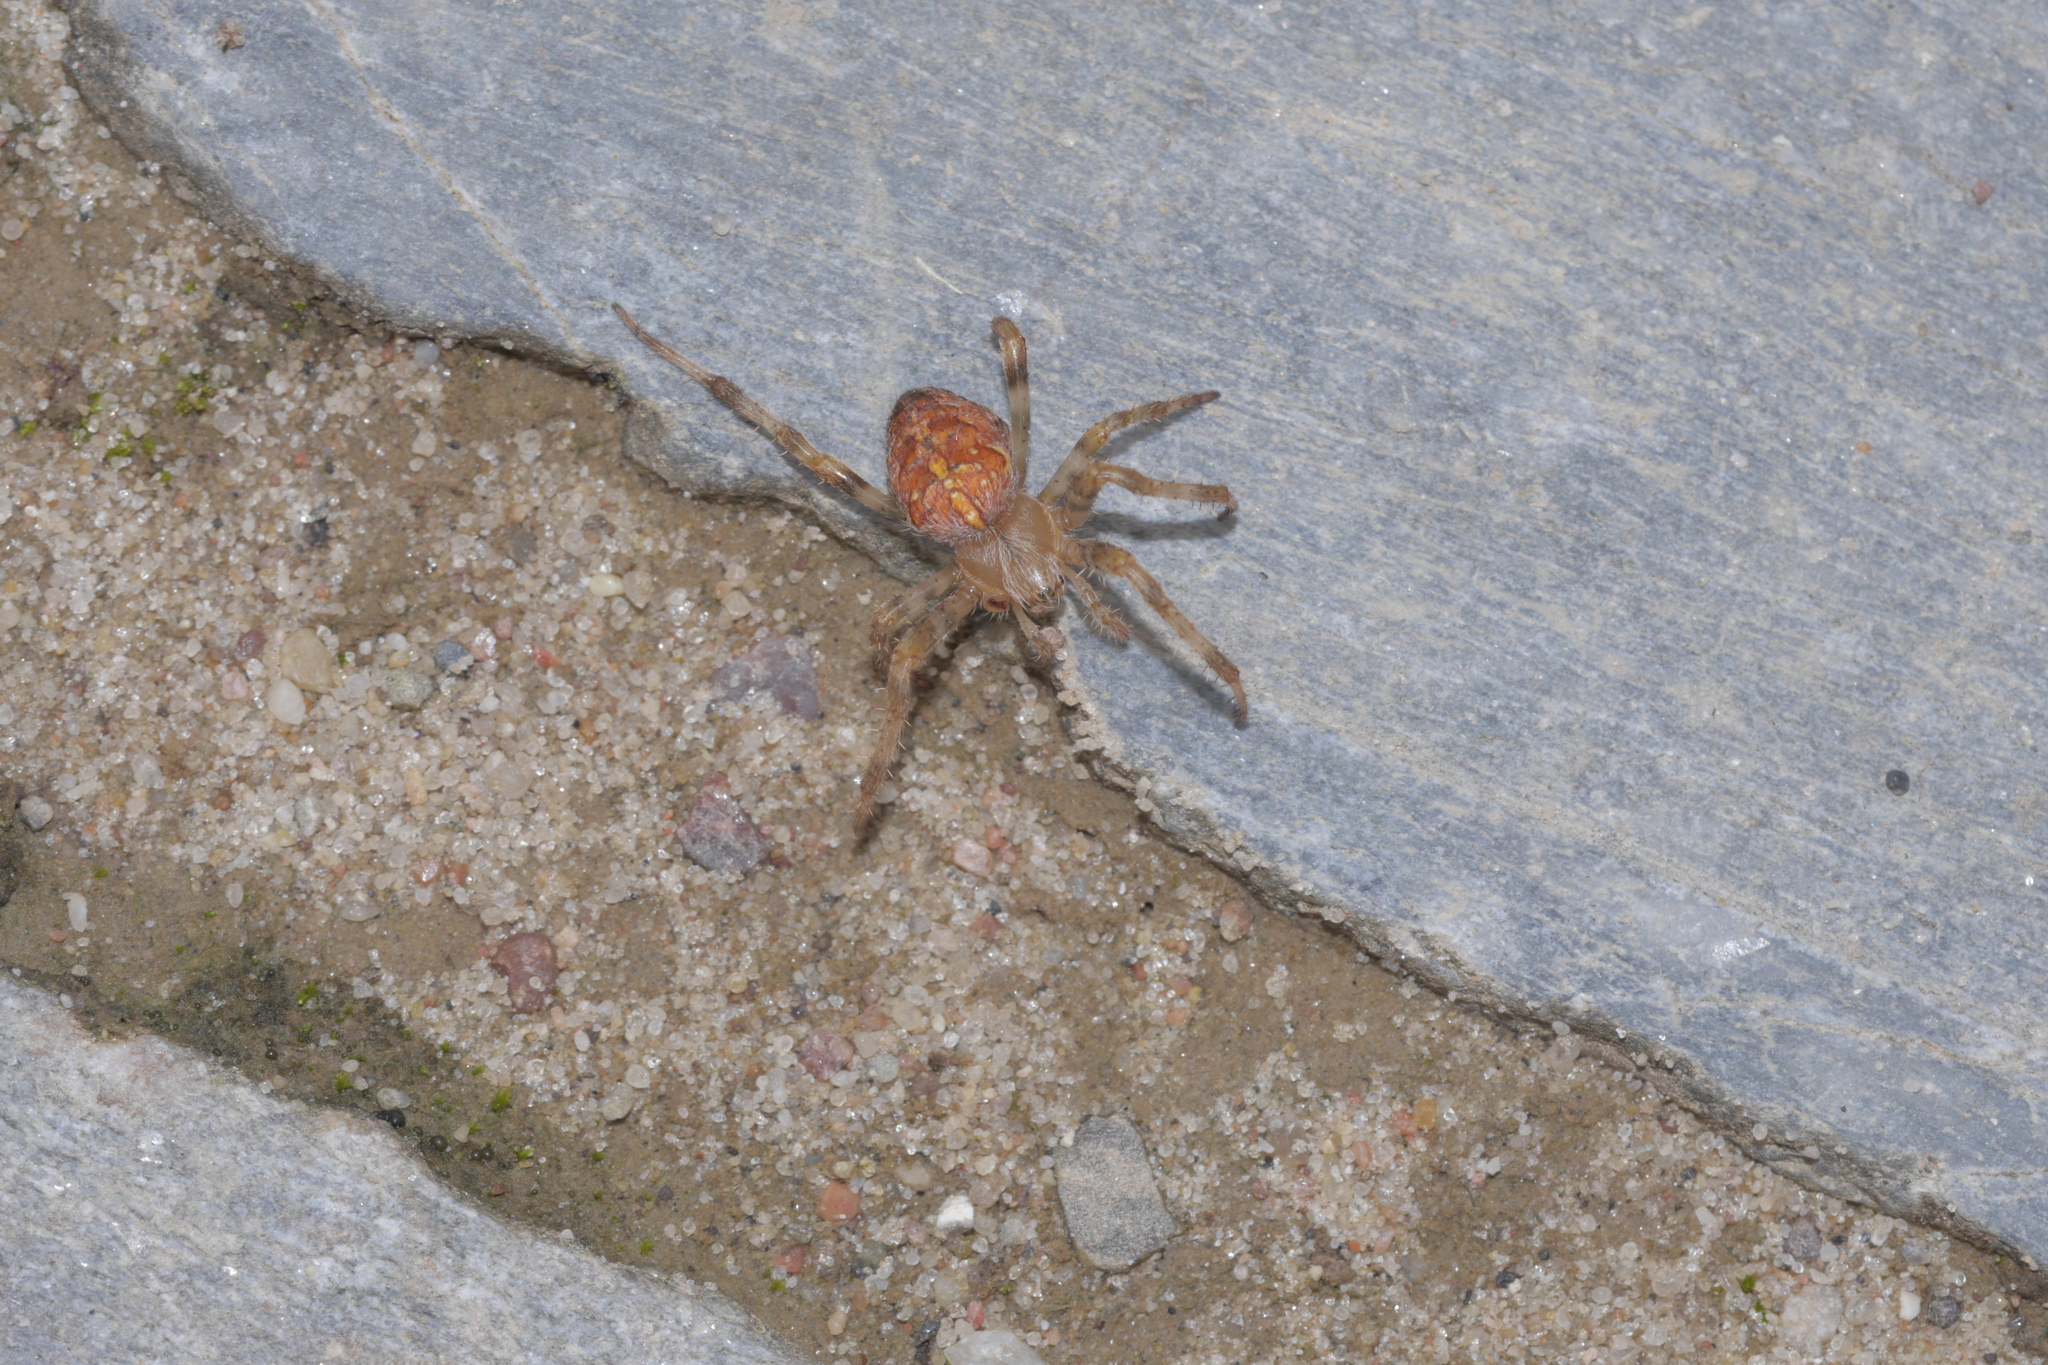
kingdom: Animalia
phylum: Arthropoda
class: Arachnida
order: Araneae
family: Araneidae
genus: Araneus
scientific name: Araneus diadematus
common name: Cross orbweaver
